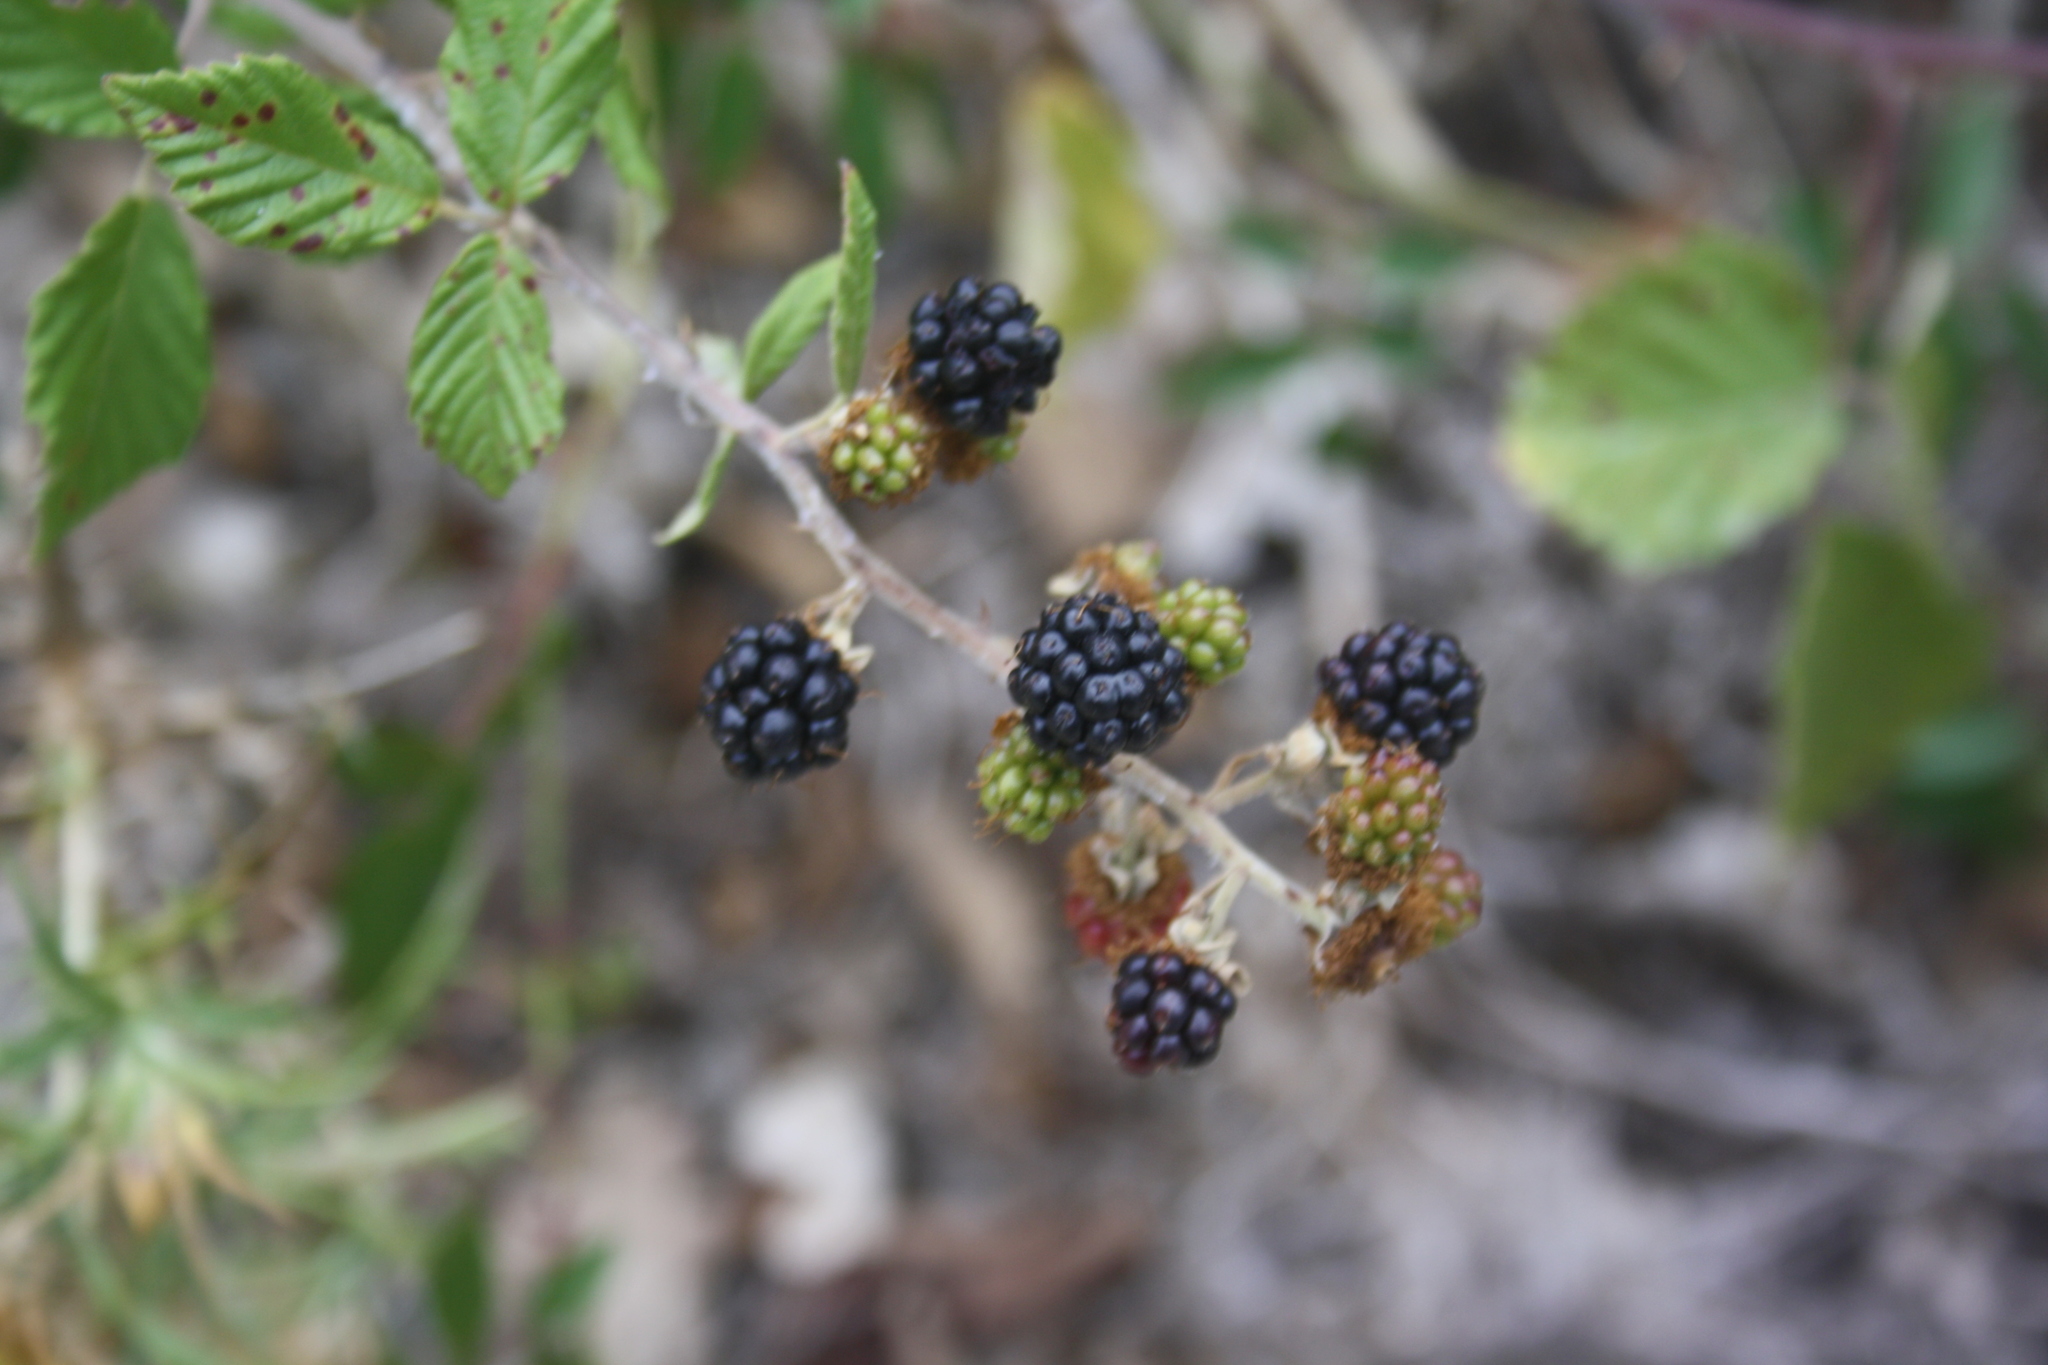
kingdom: Plantae
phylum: Tracheophyta
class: Magnoliopsida
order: Rosales
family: Rosaceae
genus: Rubus
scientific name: Rubus sanctus
